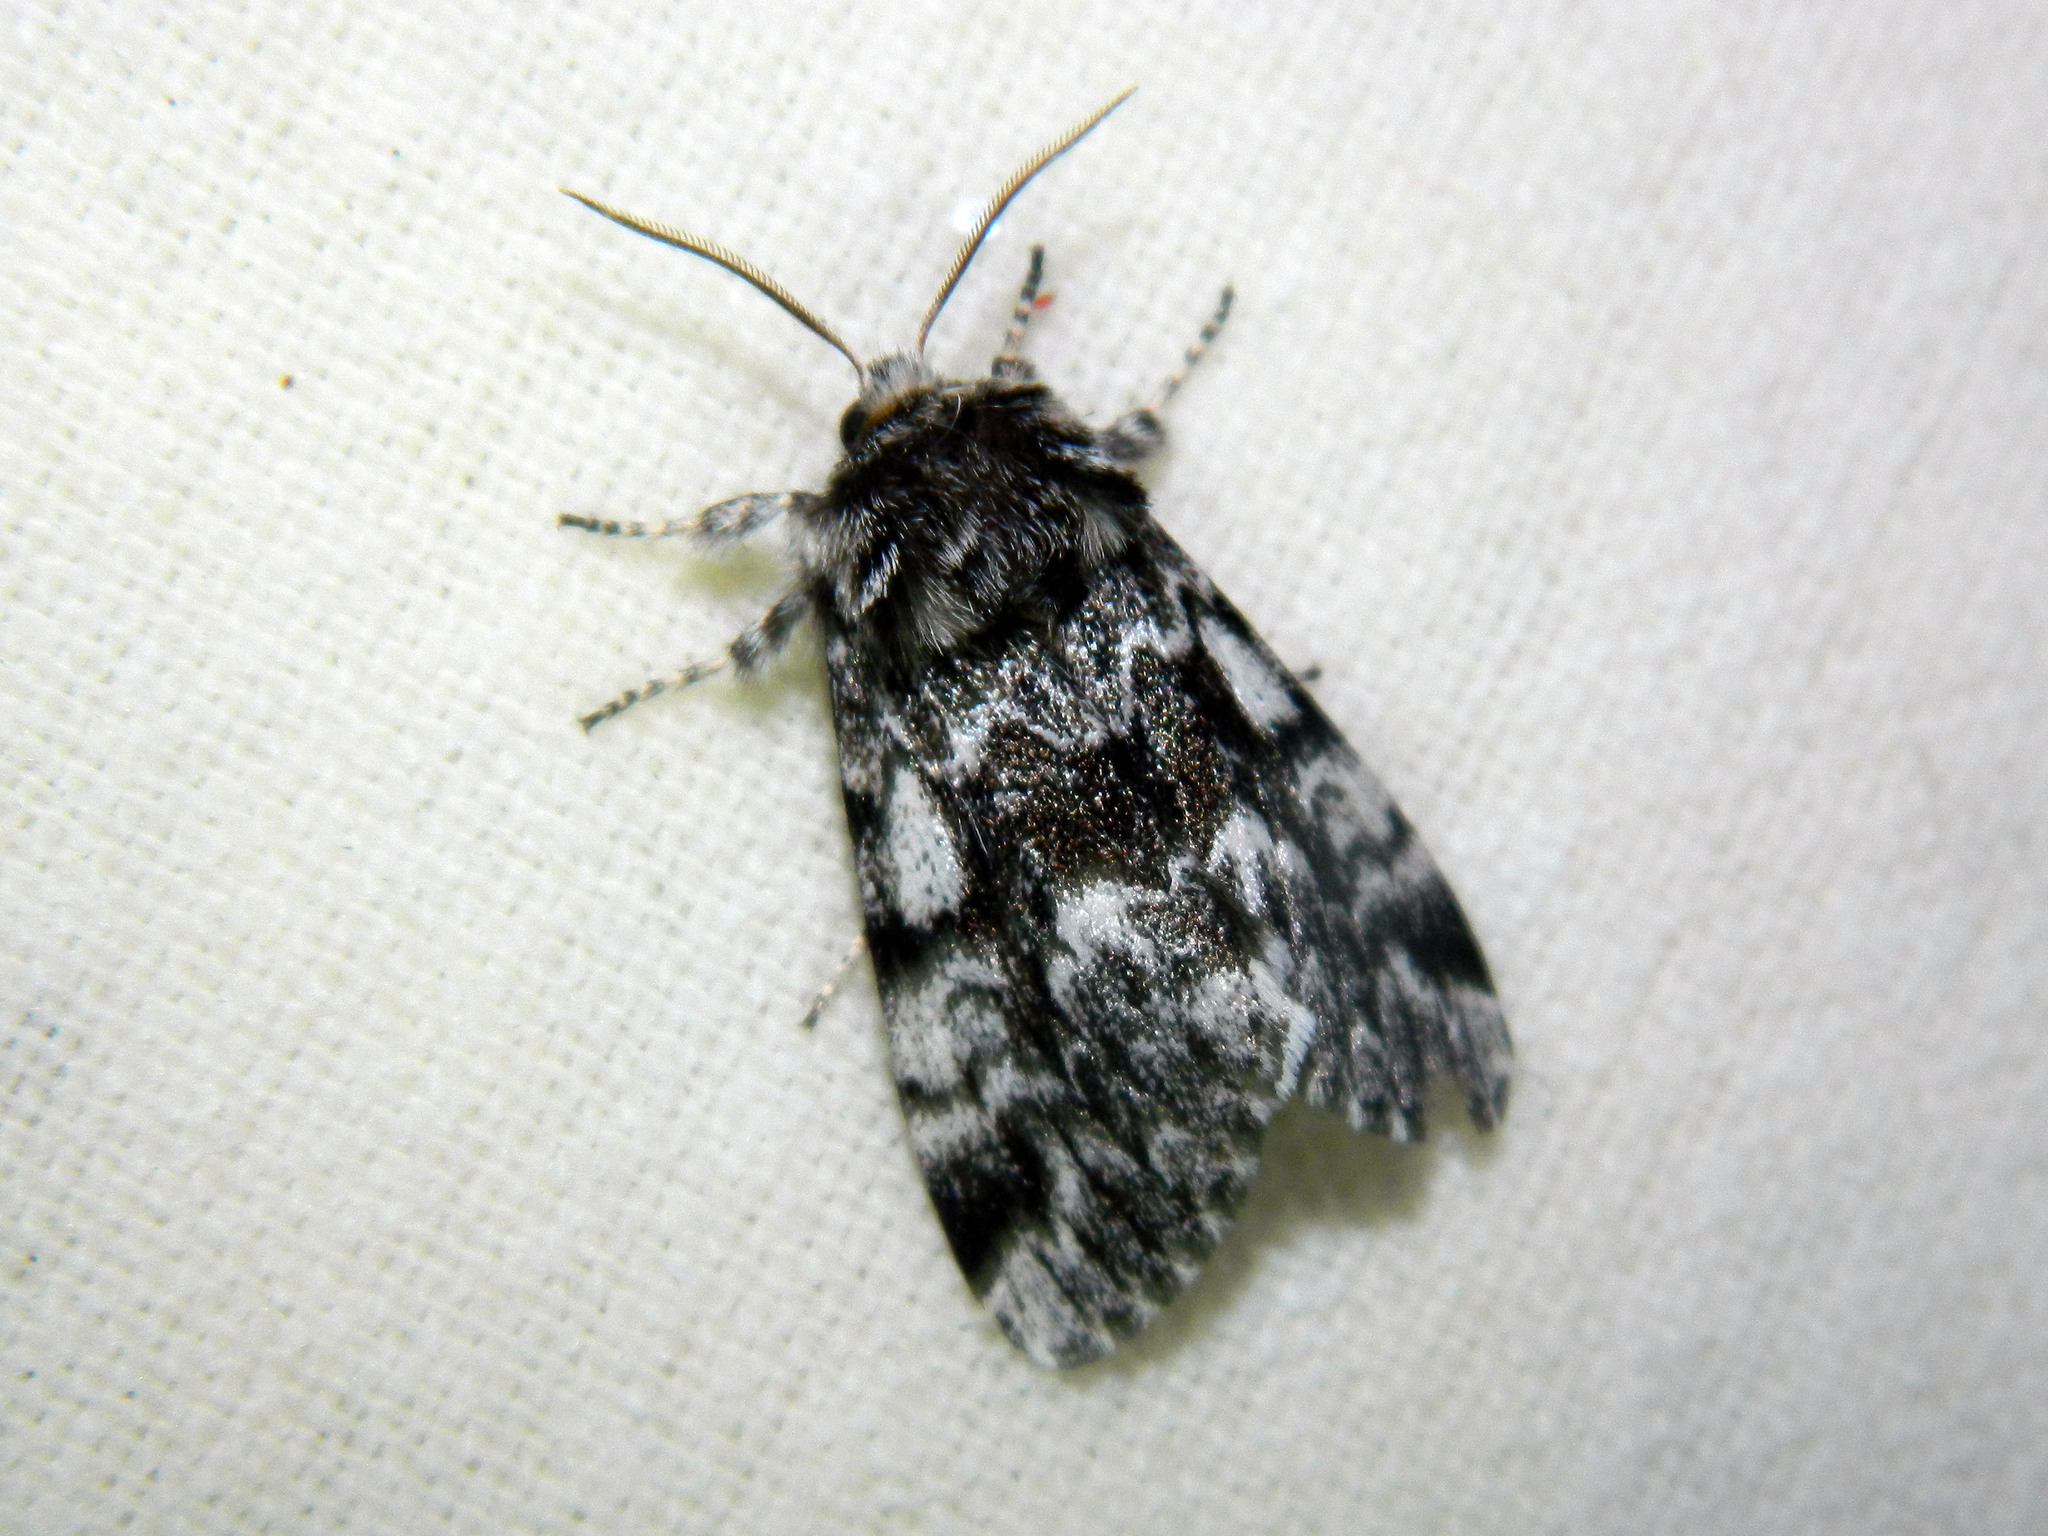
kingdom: Animalia
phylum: Arthropoda
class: Insecta
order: Lepidoptera
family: Noctuidae
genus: Panthea
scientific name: Panthea acronyctoides
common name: Black zigzag moth
